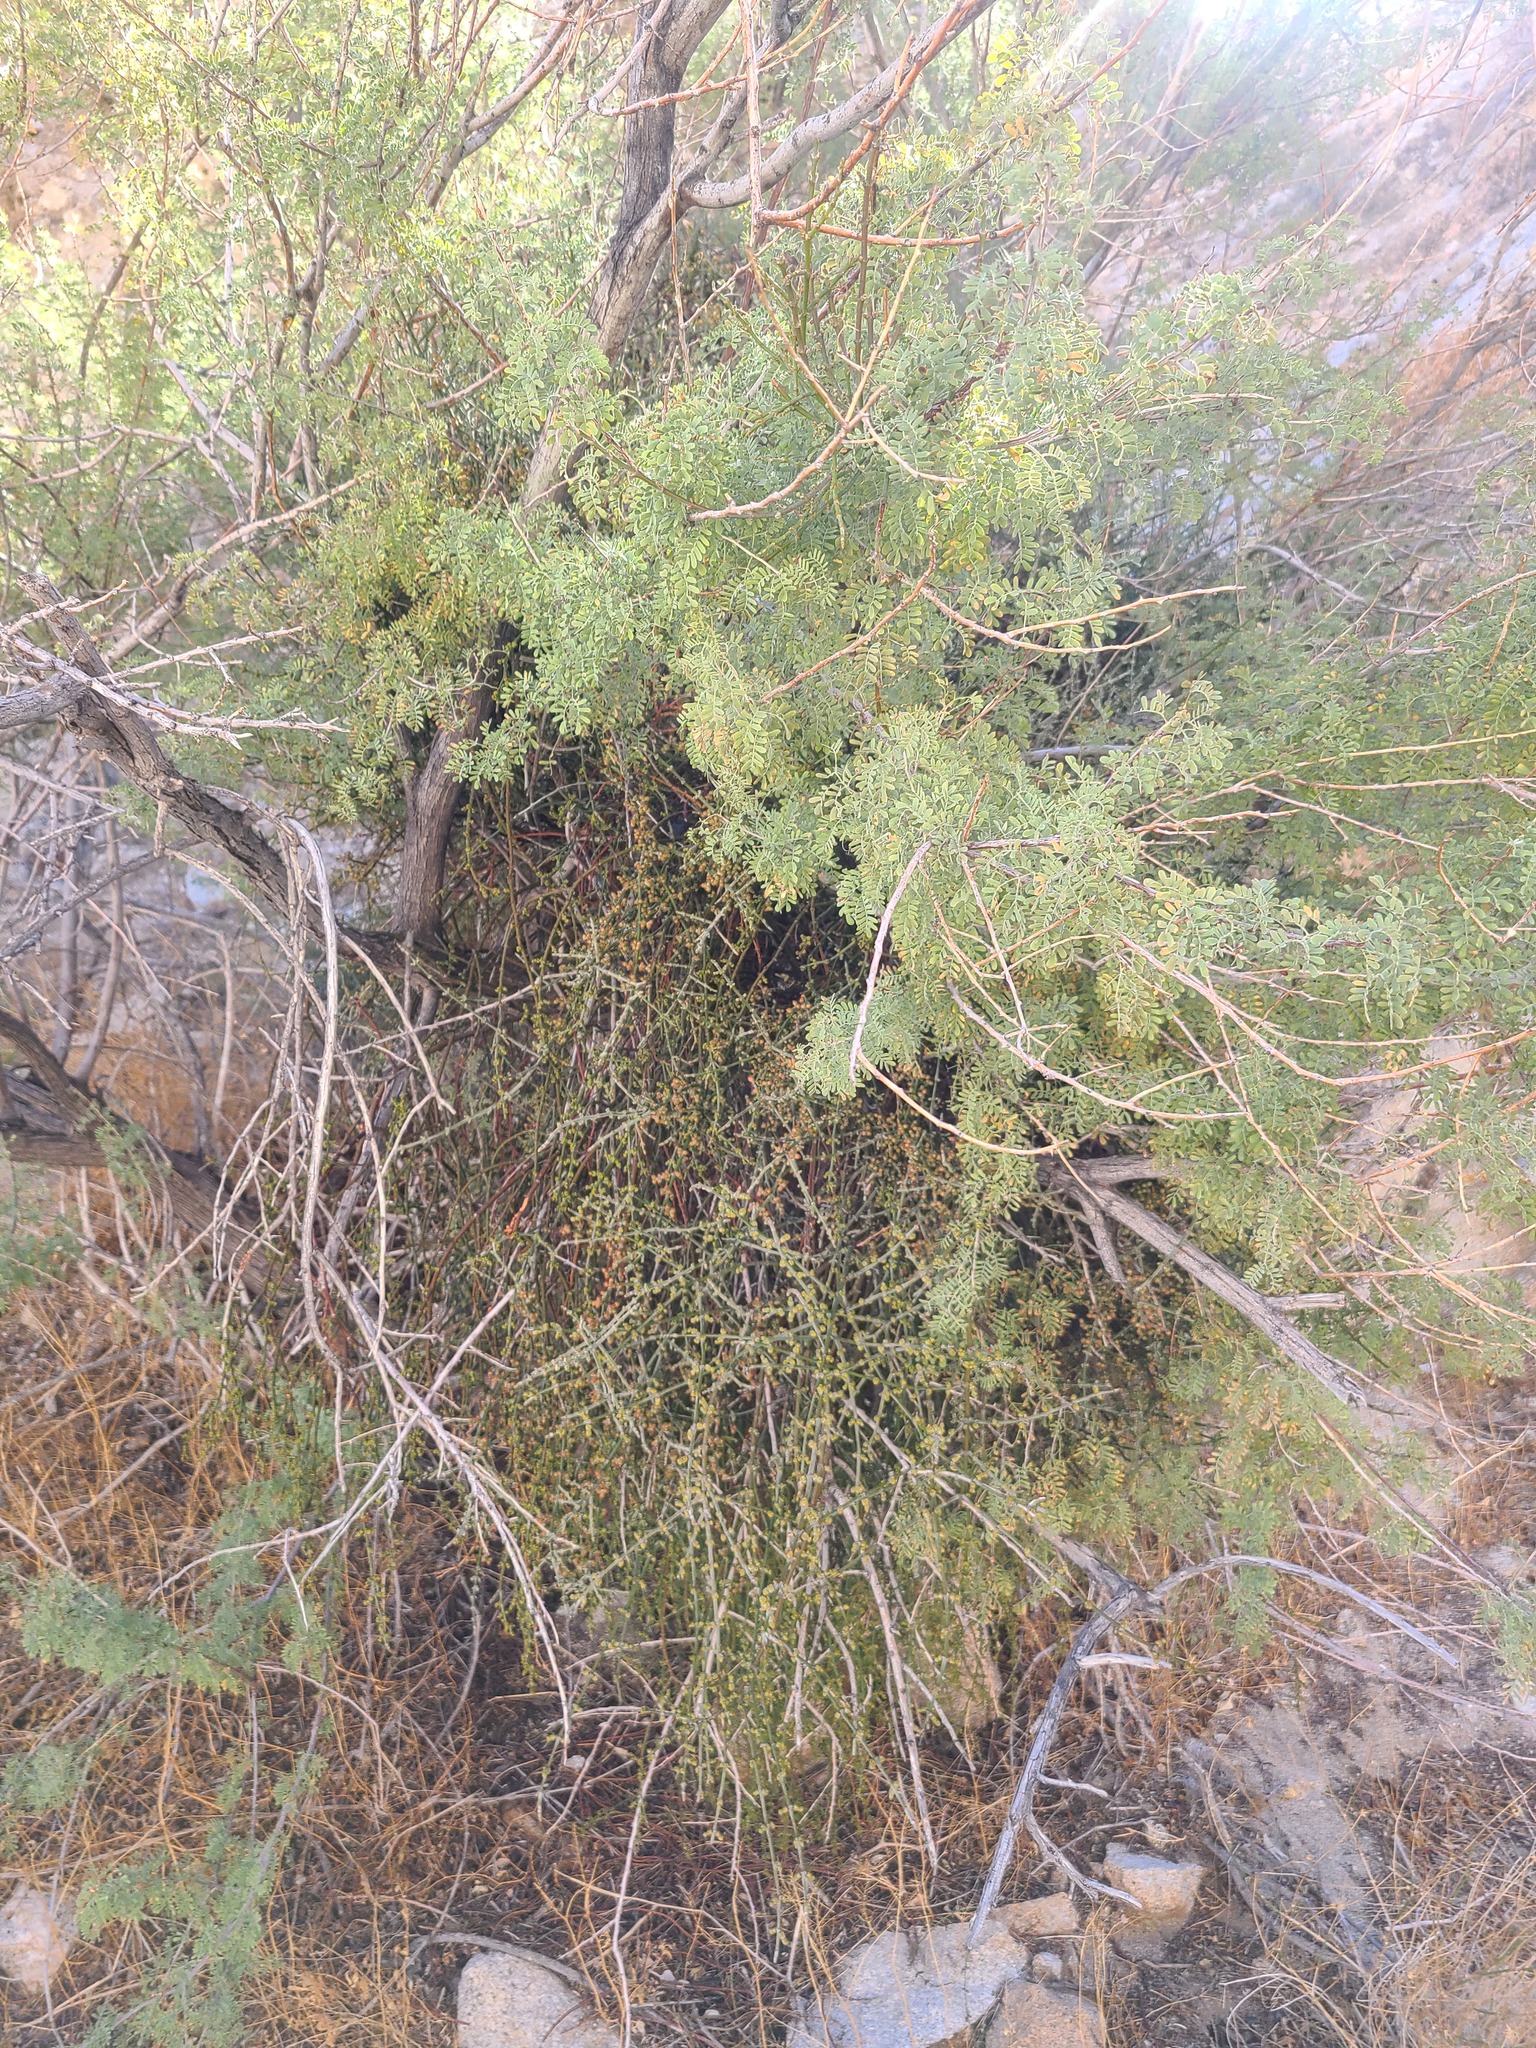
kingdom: Plantae
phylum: Tracheophyta
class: Magnoliopsida
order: Fabales
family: Fabaceae
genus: Senegalia
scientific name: Senegalia greggii
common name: Texas-mimosa
